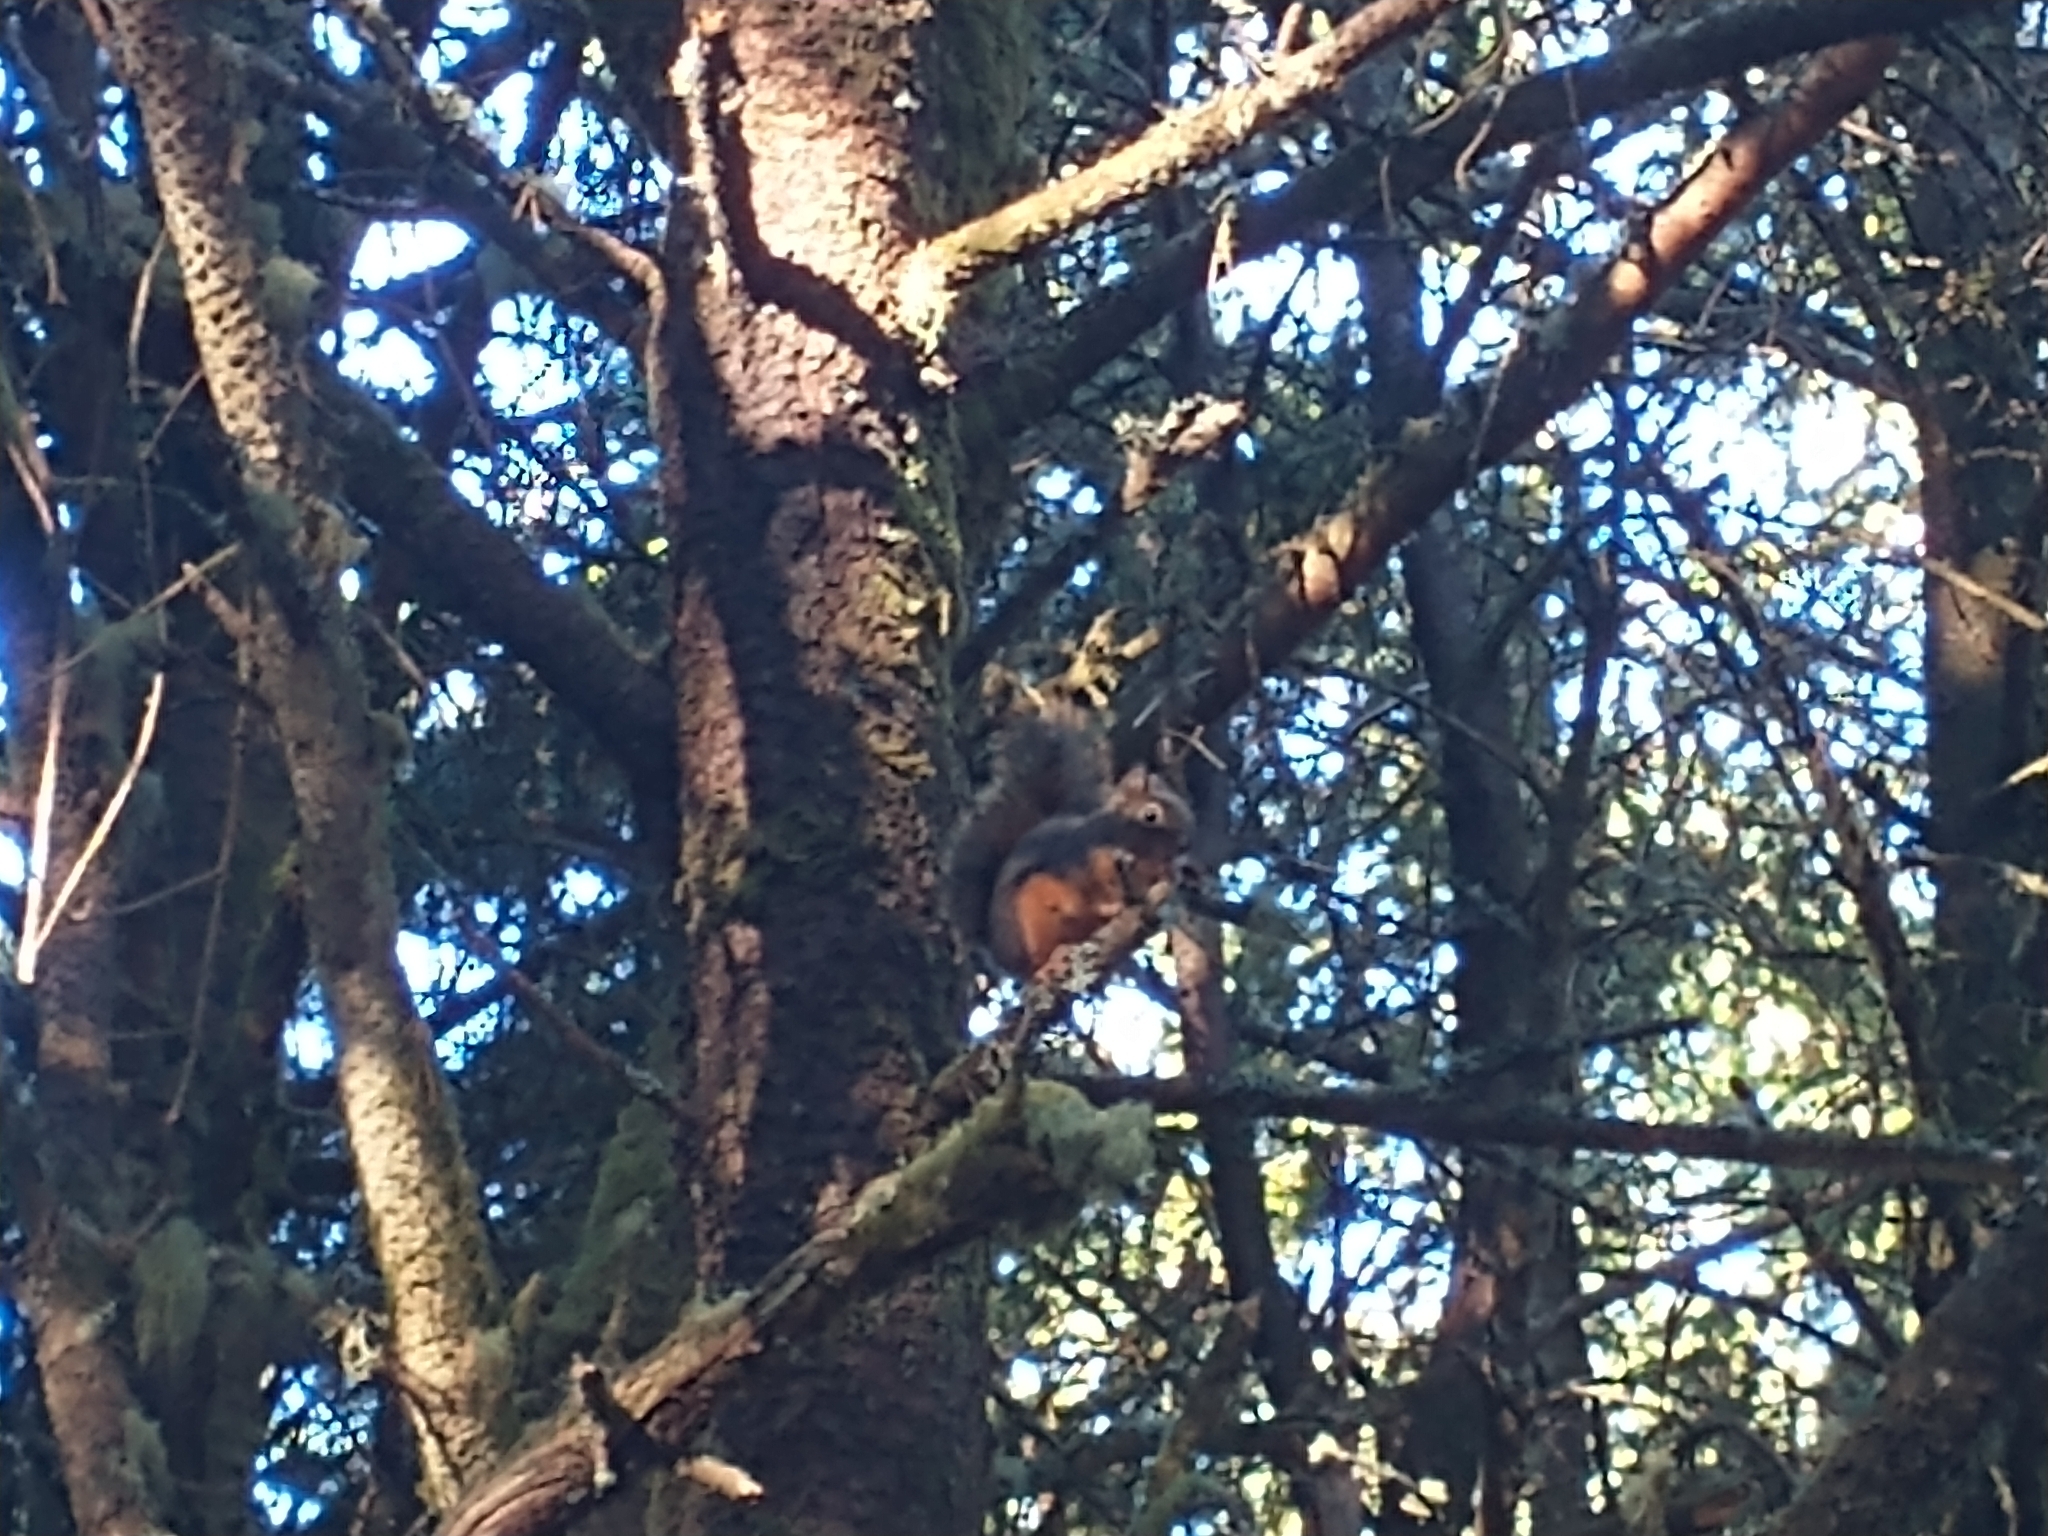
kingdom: Animalia
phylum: Chordata
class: Mammalia
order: Rodentia
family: Sciuridae
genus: Tamiasciurus
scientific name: Tamiasciurus douglasii
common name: Douglas's squirrel
